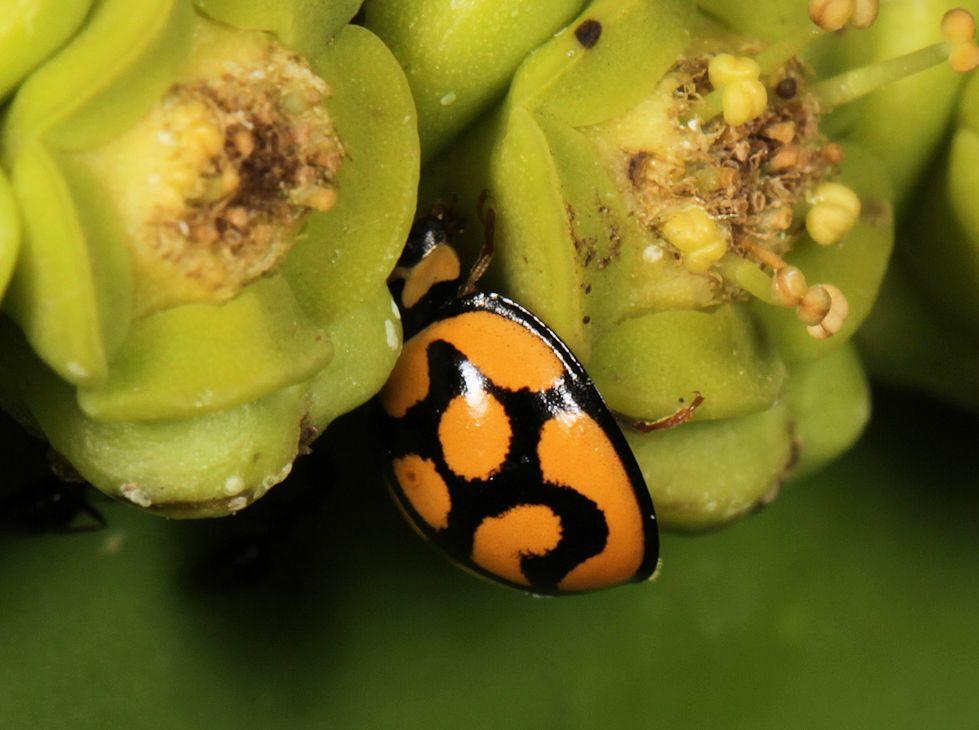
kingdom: Animalia
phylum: Arthropoda
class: Insecta
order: Coleoptera
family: Coccinellidae
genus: Cheilomenes
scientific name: Cheilomenes lunata
